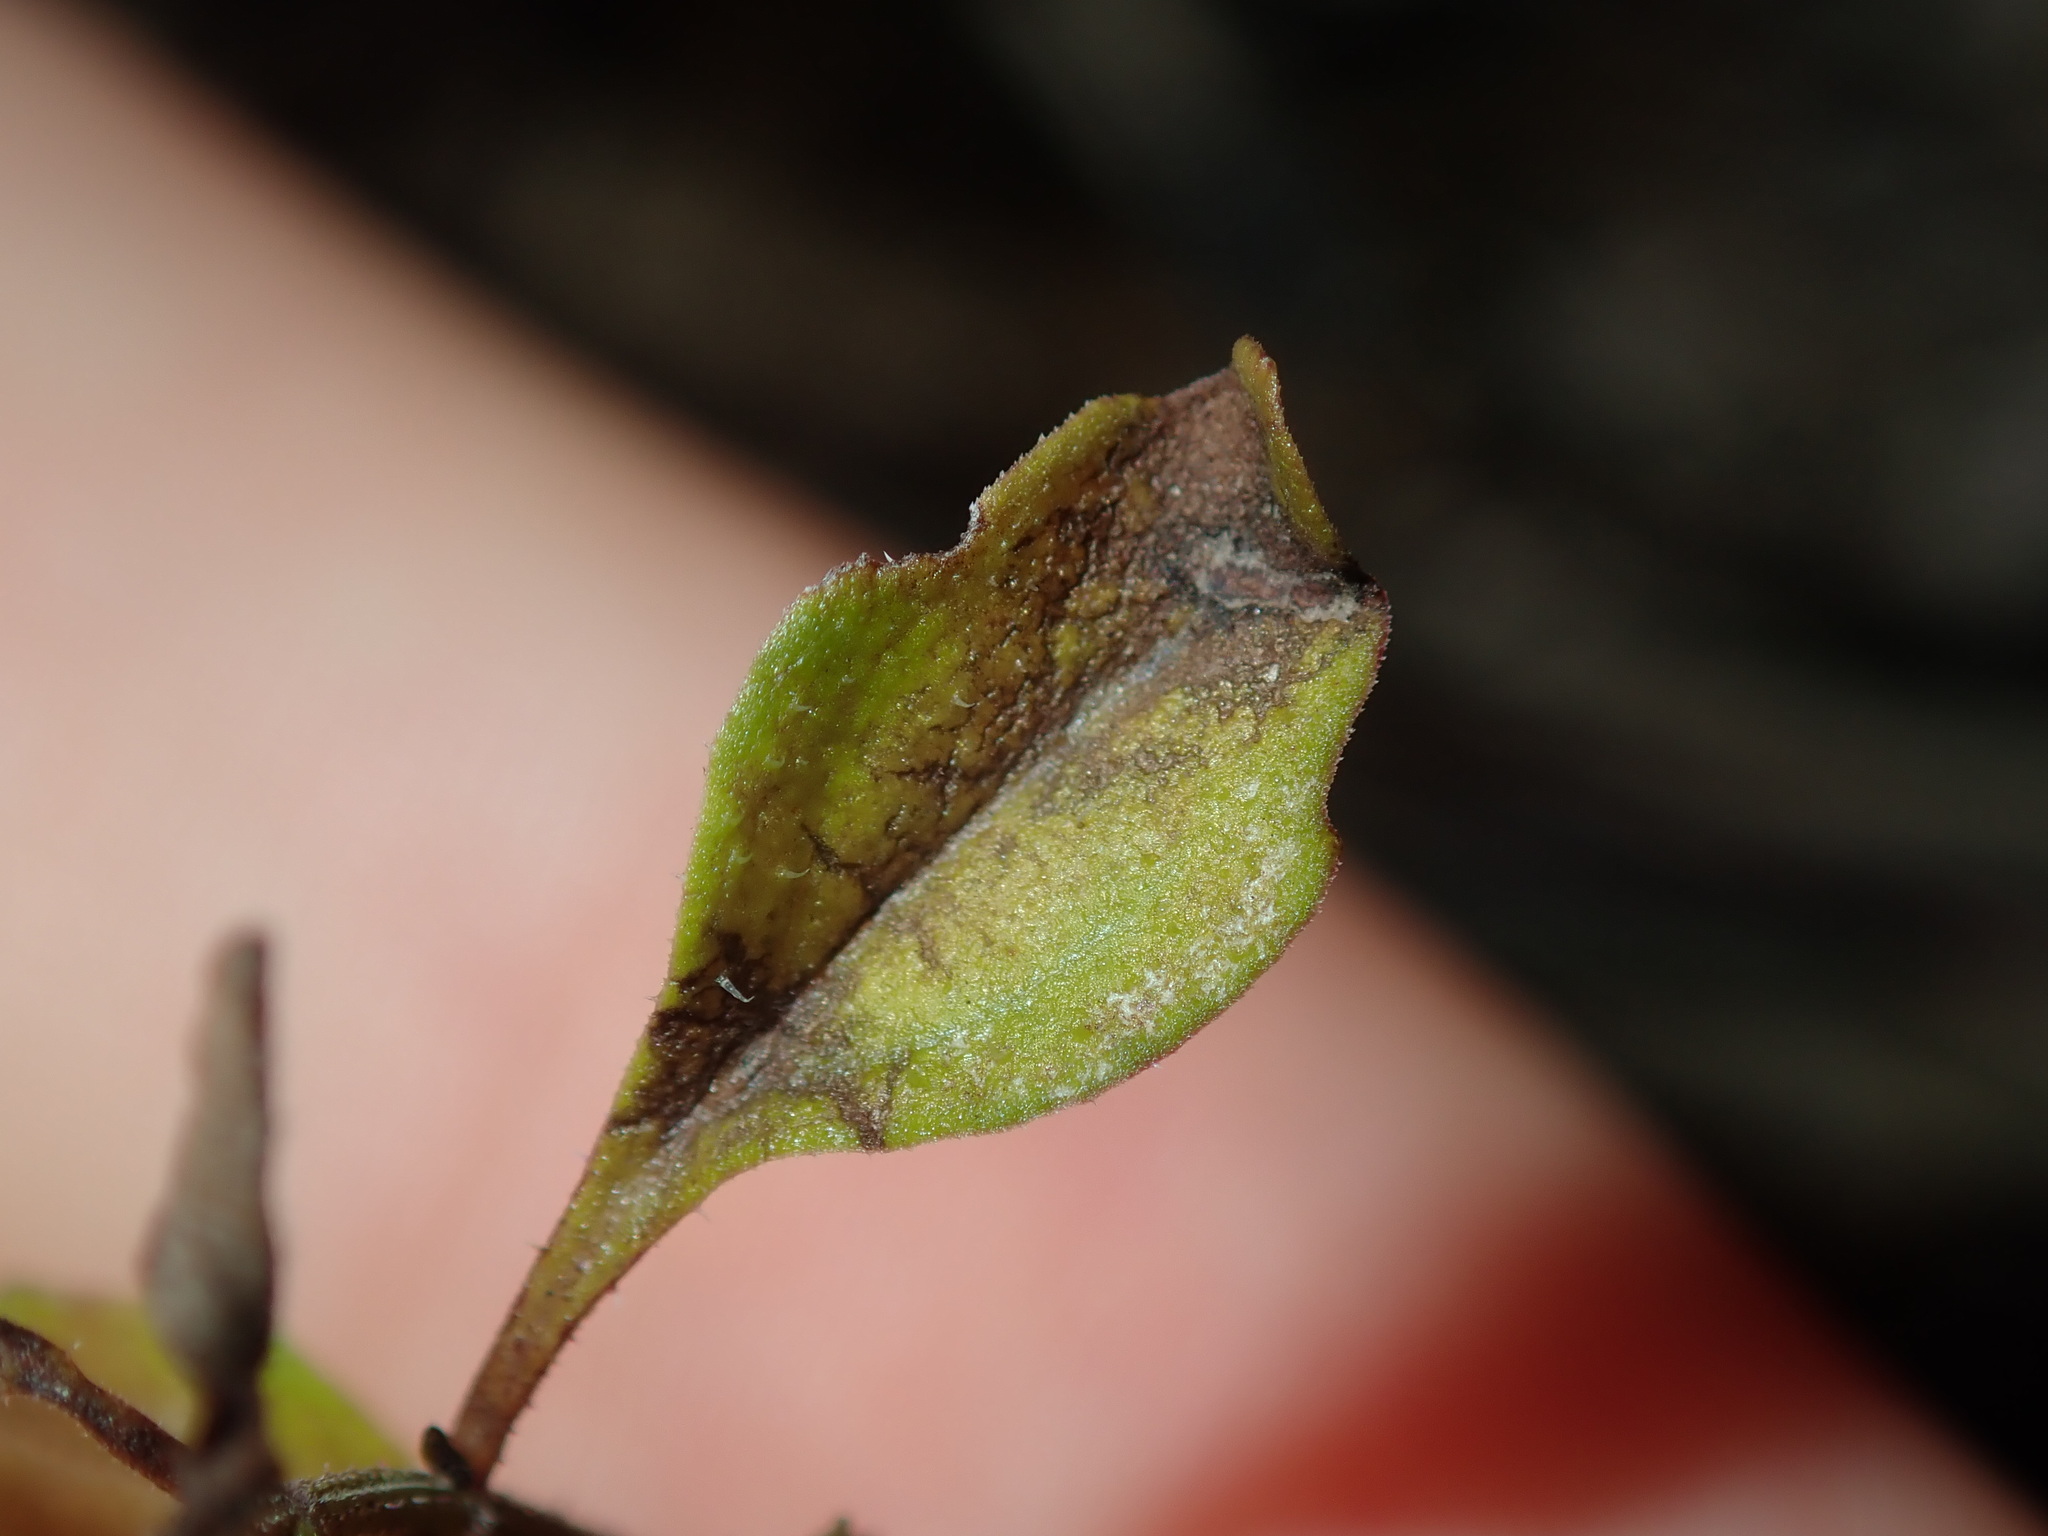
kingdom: Plantae
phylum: Tracheophyta
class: Magnoliopsida
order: Lamiales
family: Lamiaceae
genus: Mentha
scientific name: Mentha diemenica
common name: Wild mint
